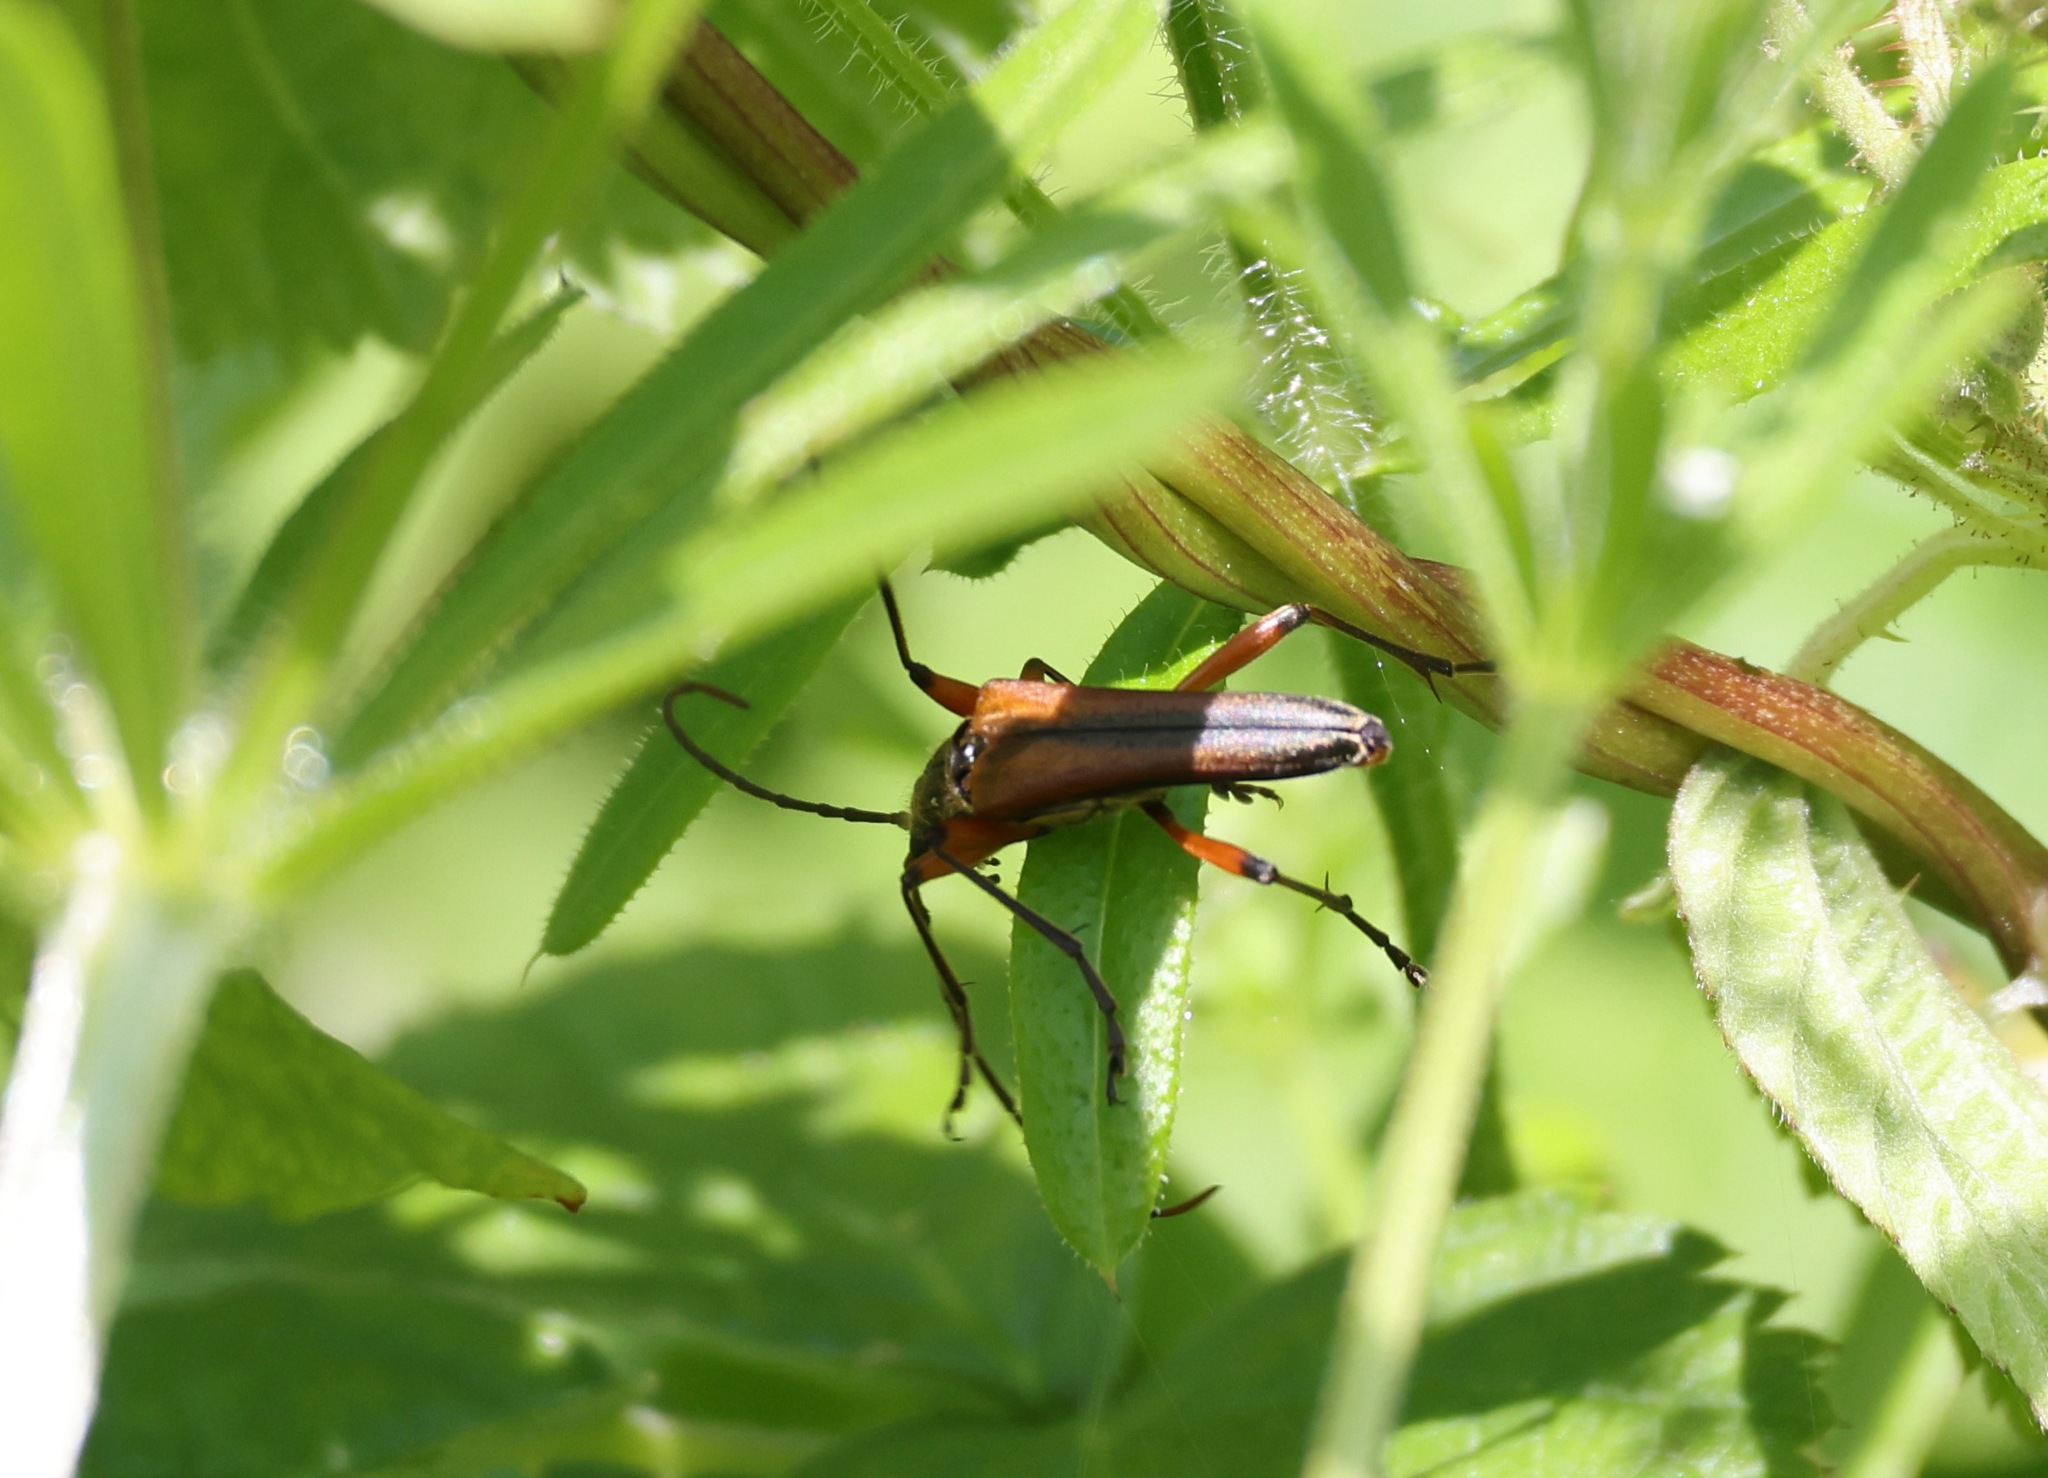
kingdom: Animalia
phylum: Arthropoda
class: Insecta
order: Coleoptera
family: Cerambycidae
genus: Stenocorus
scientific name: Stenocorus meridianus
